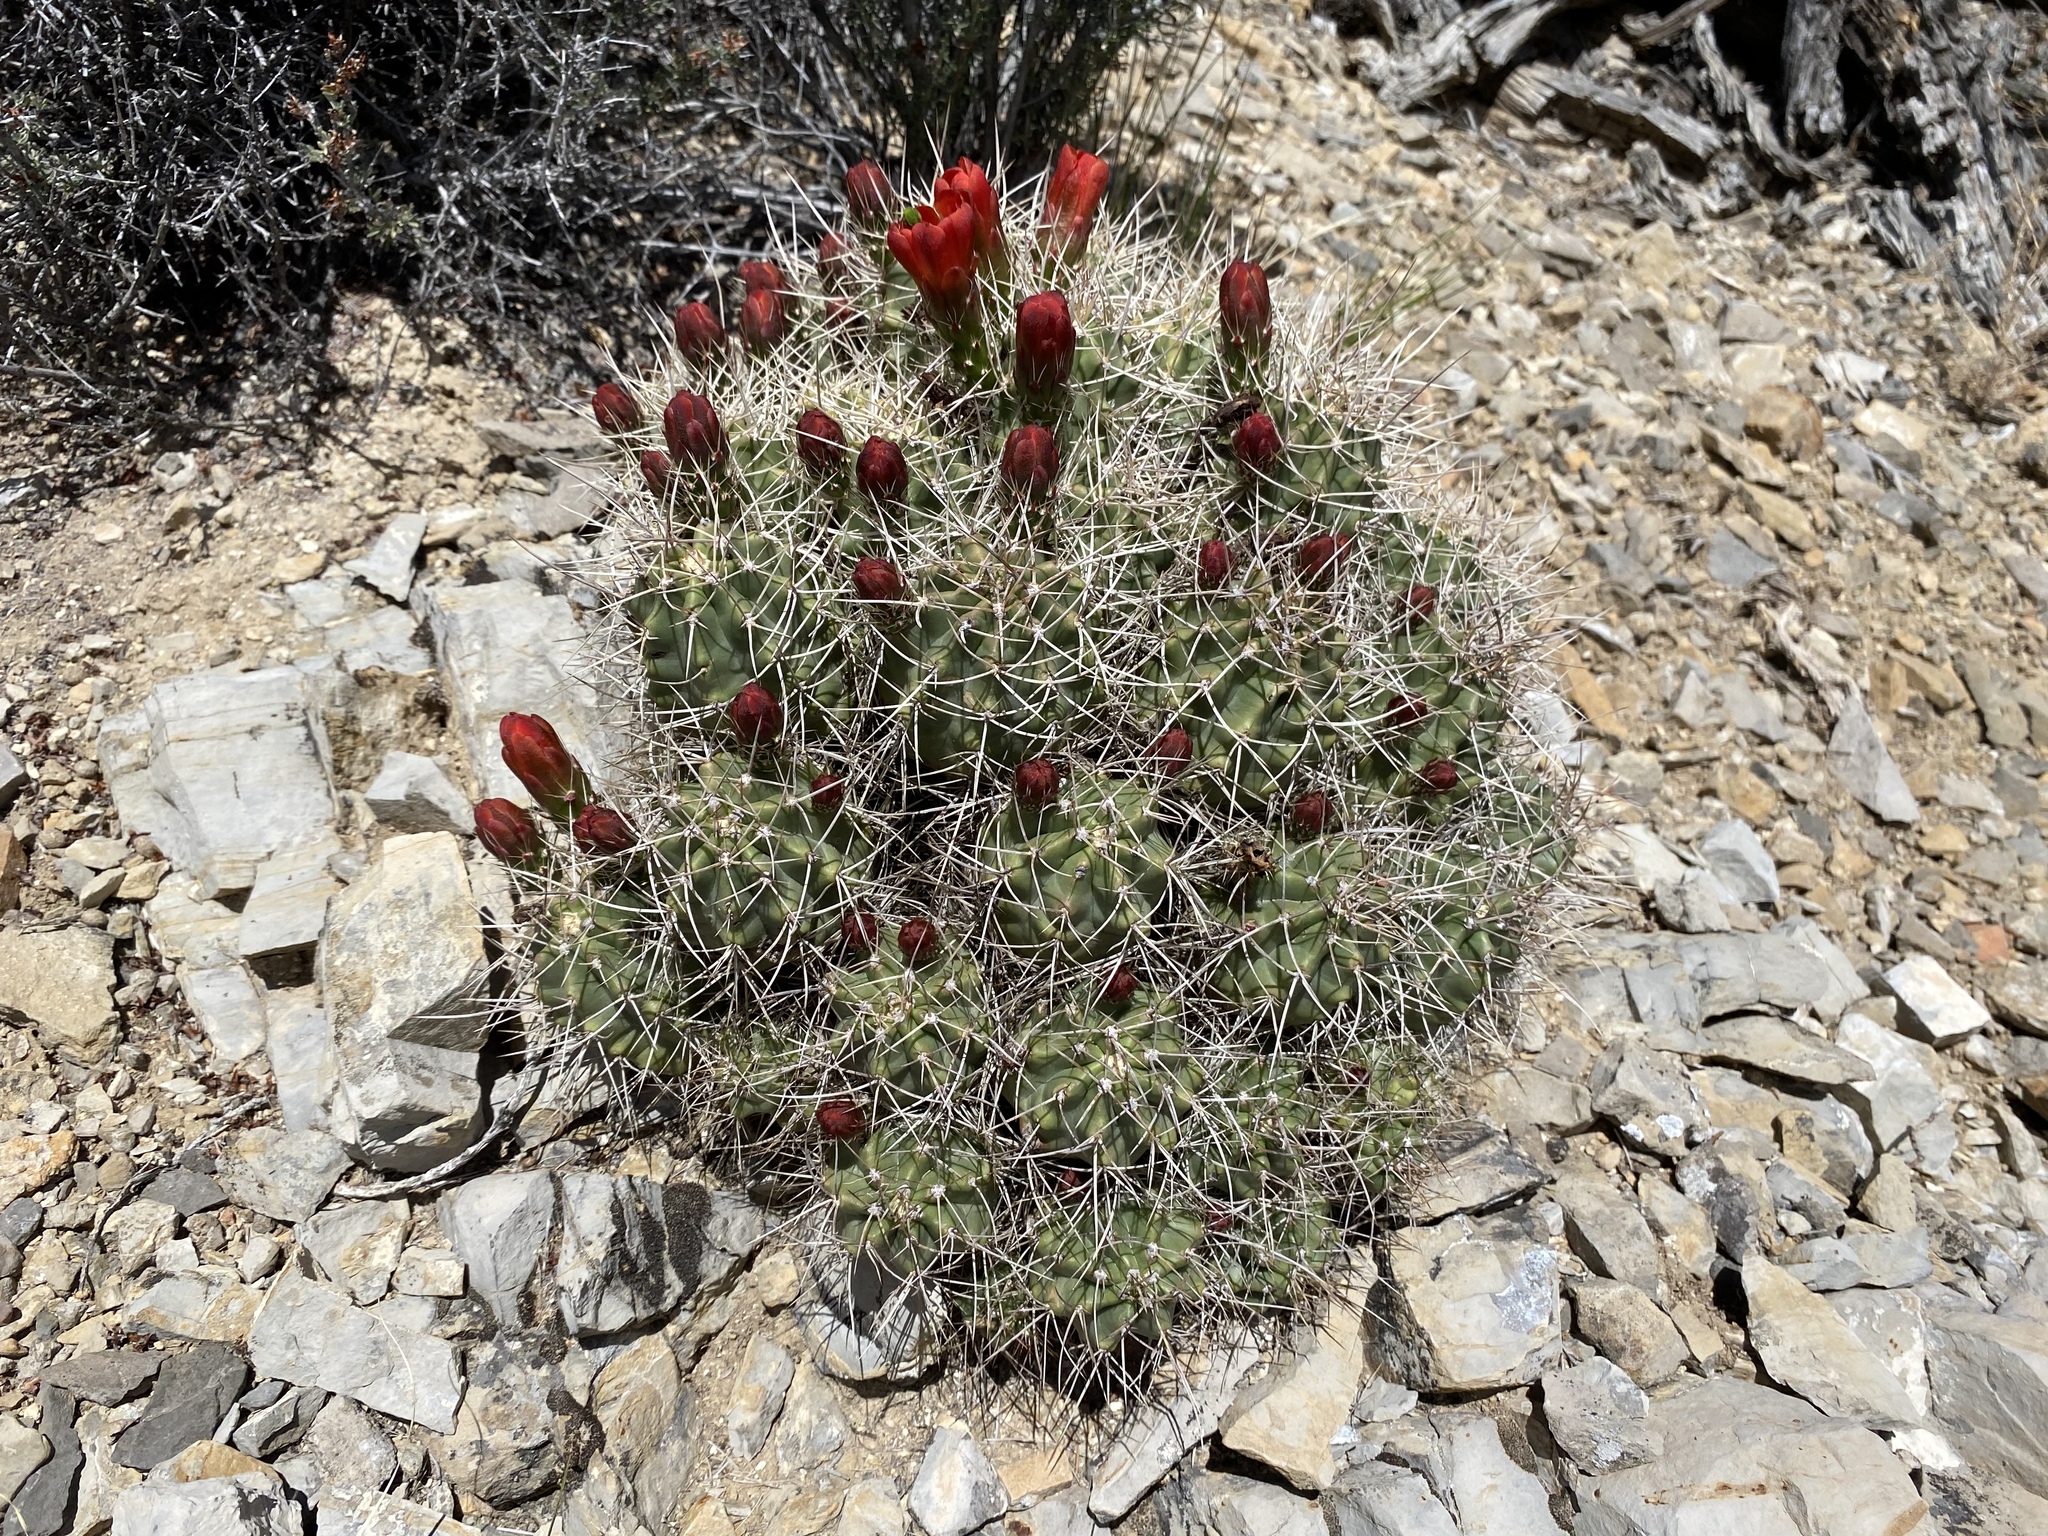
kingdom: Plantae
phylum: Tracheophyta
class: Magnoliopsida
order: Caryophyllales
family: Cactaceae
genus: Echinocereus
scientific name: Echinocereus triglochidiatus
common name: Claretcup hedgehog
